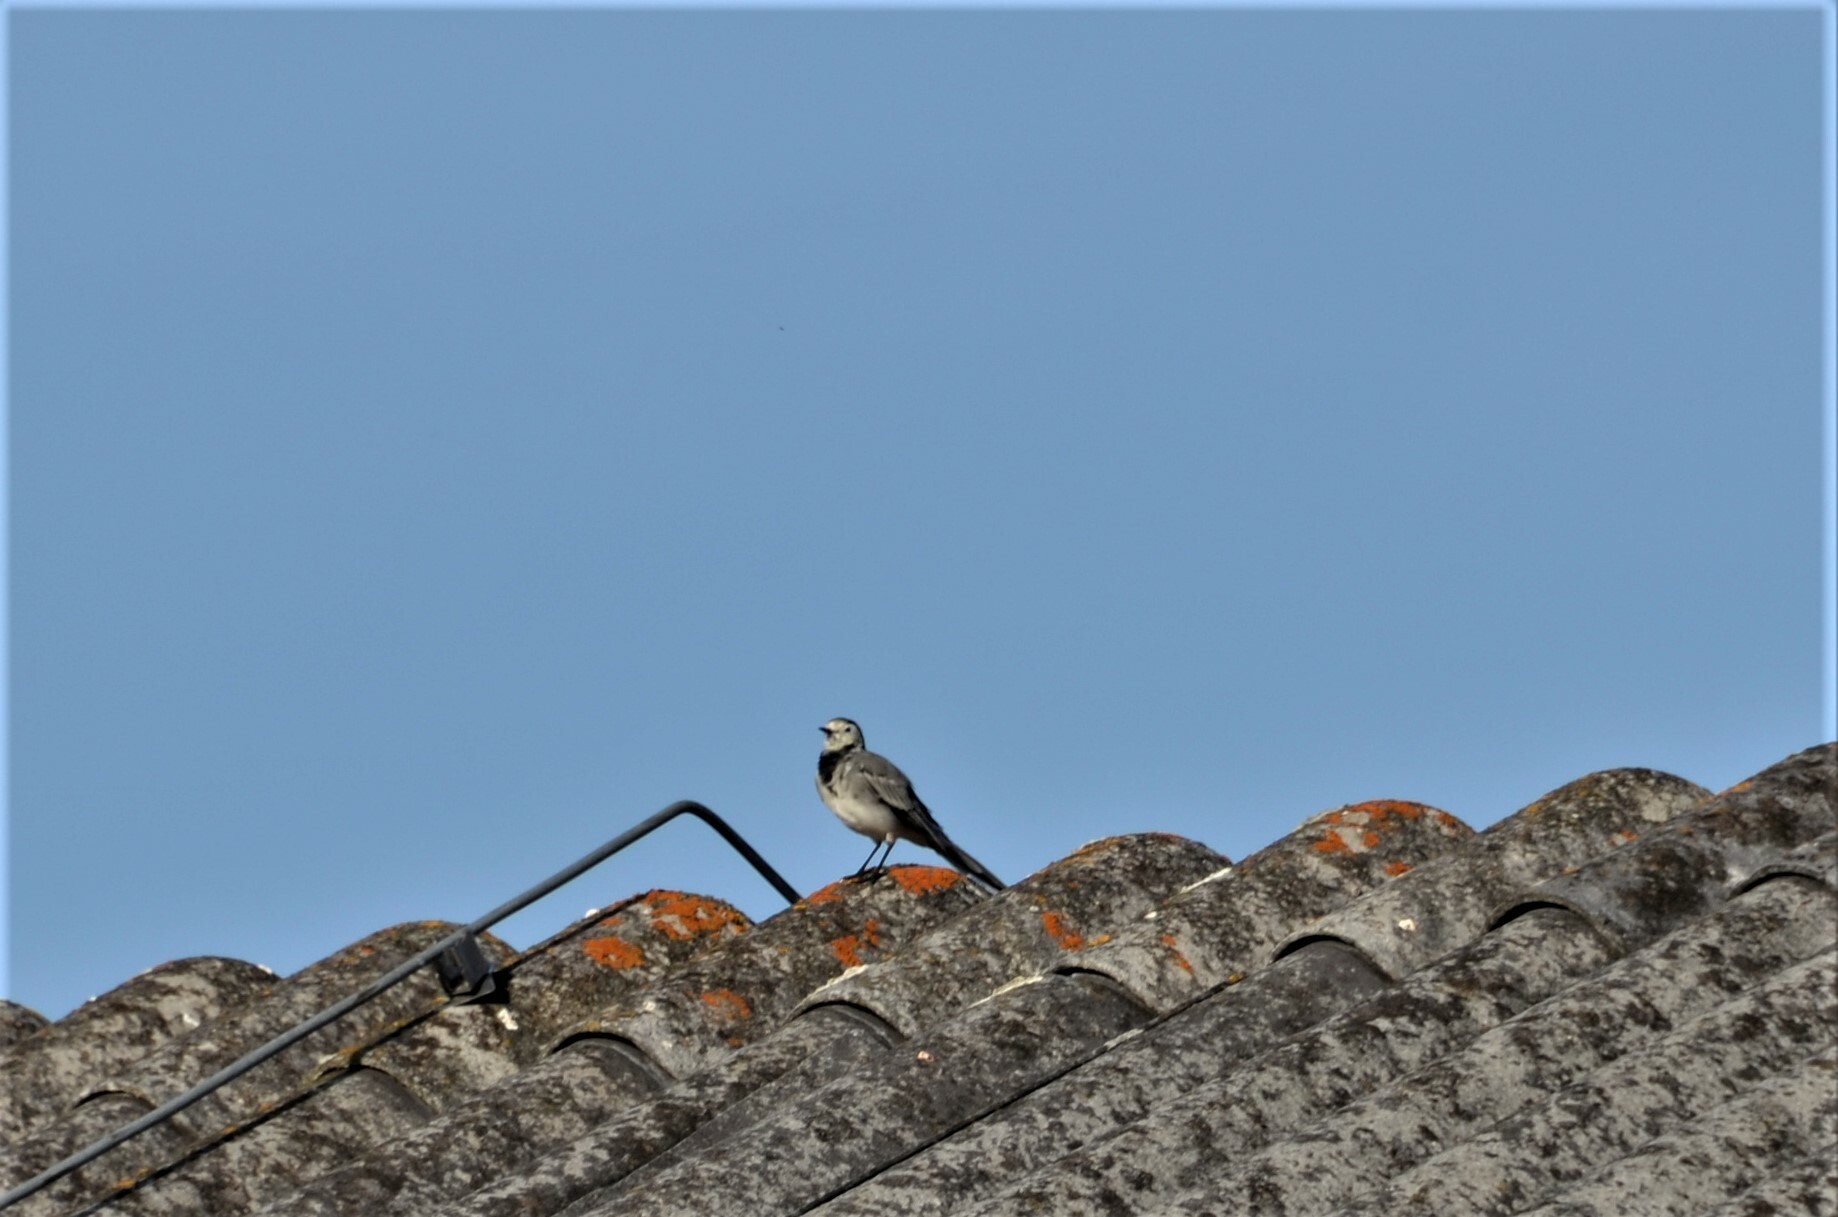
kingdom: Animalia
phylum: Chordata
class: Aves
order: Passeriformes
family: Motacillidae
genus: Motacilla
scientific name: Motacilla alba
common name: White wagtail
